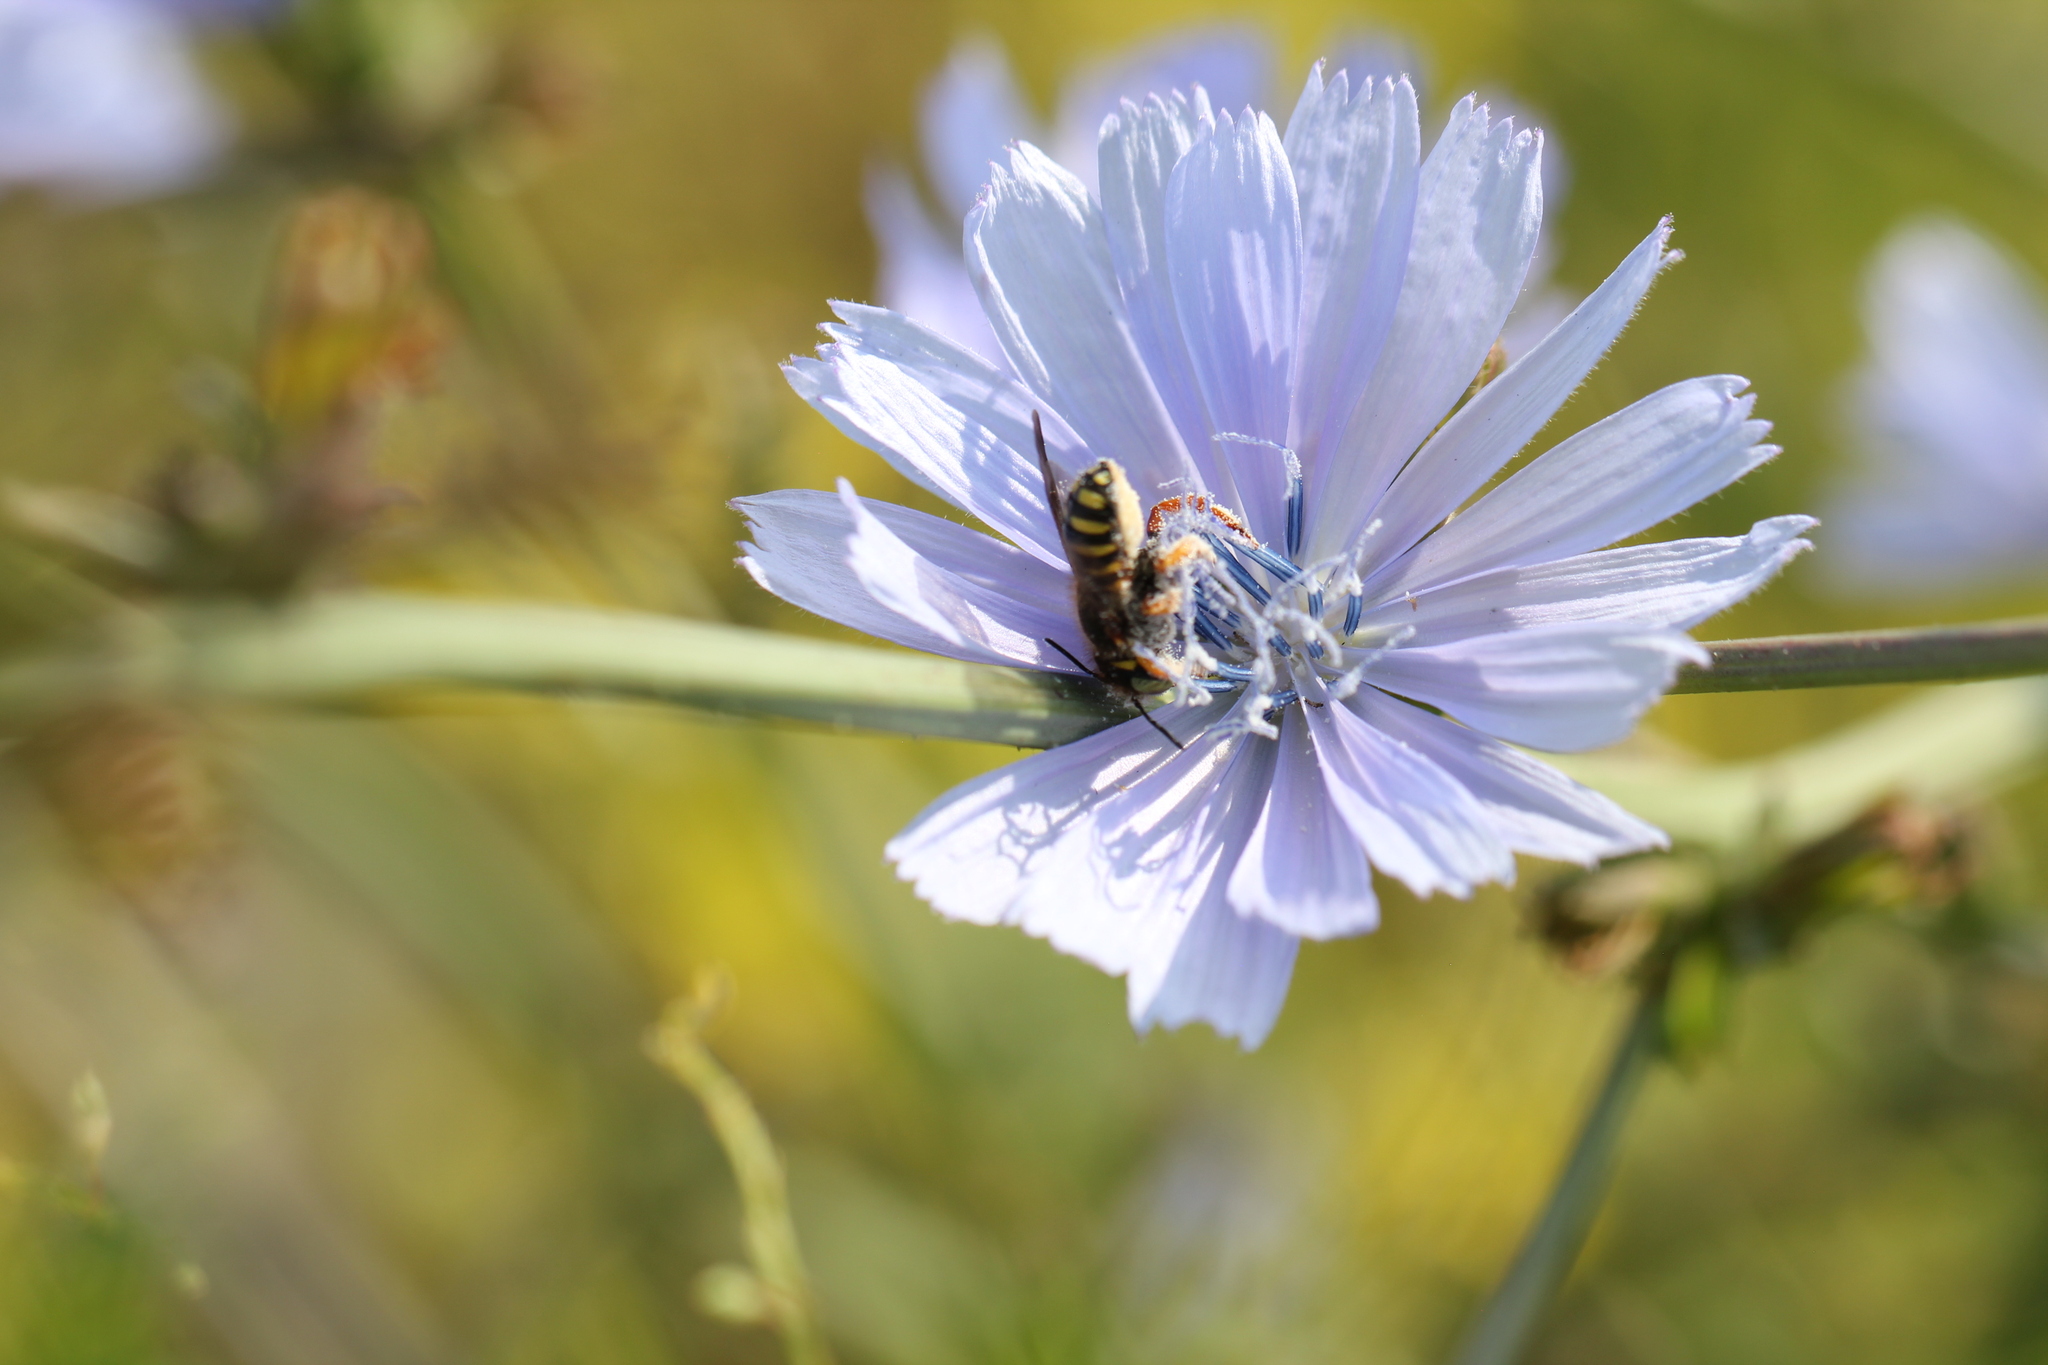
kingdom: Animalia
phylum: Arthropoda
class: Insecta
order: Hymenoptera
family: Megachilidae
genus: Anthidium
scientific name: Anthidium oblongatum
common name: Oblong wool carder bee
